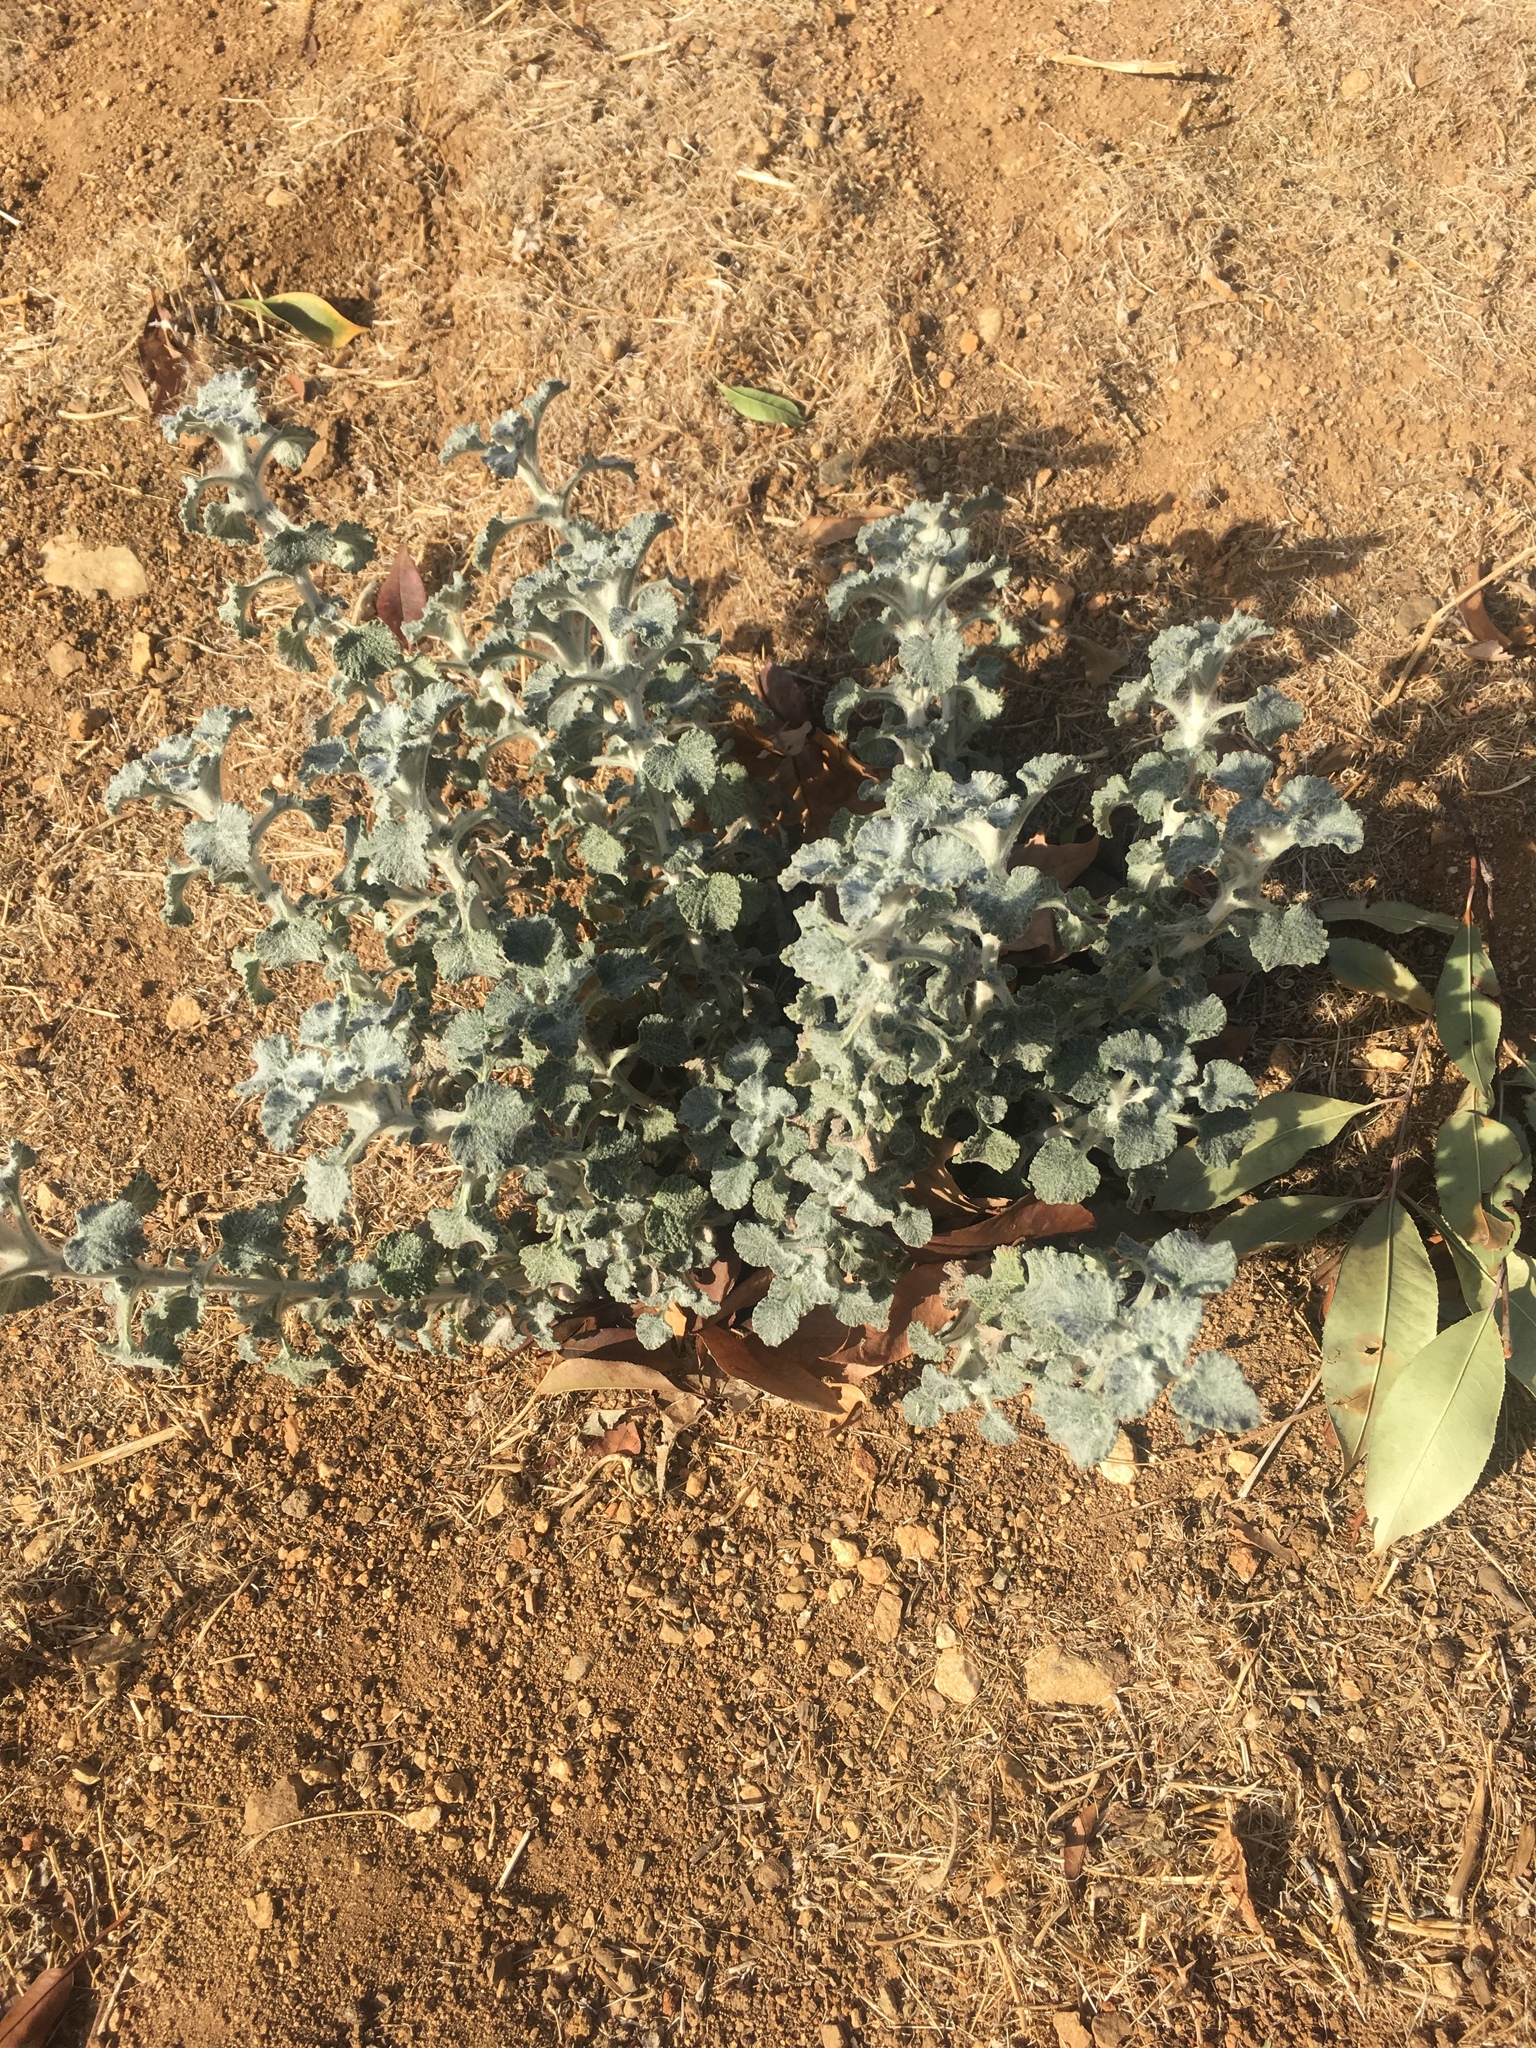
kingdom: Plantae
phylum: Tracheophyta
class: Magnoliopsida
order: Lamiales
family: Lamiaceae
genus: Marrubium
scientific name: Marrubium vulgare
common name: Horehound
